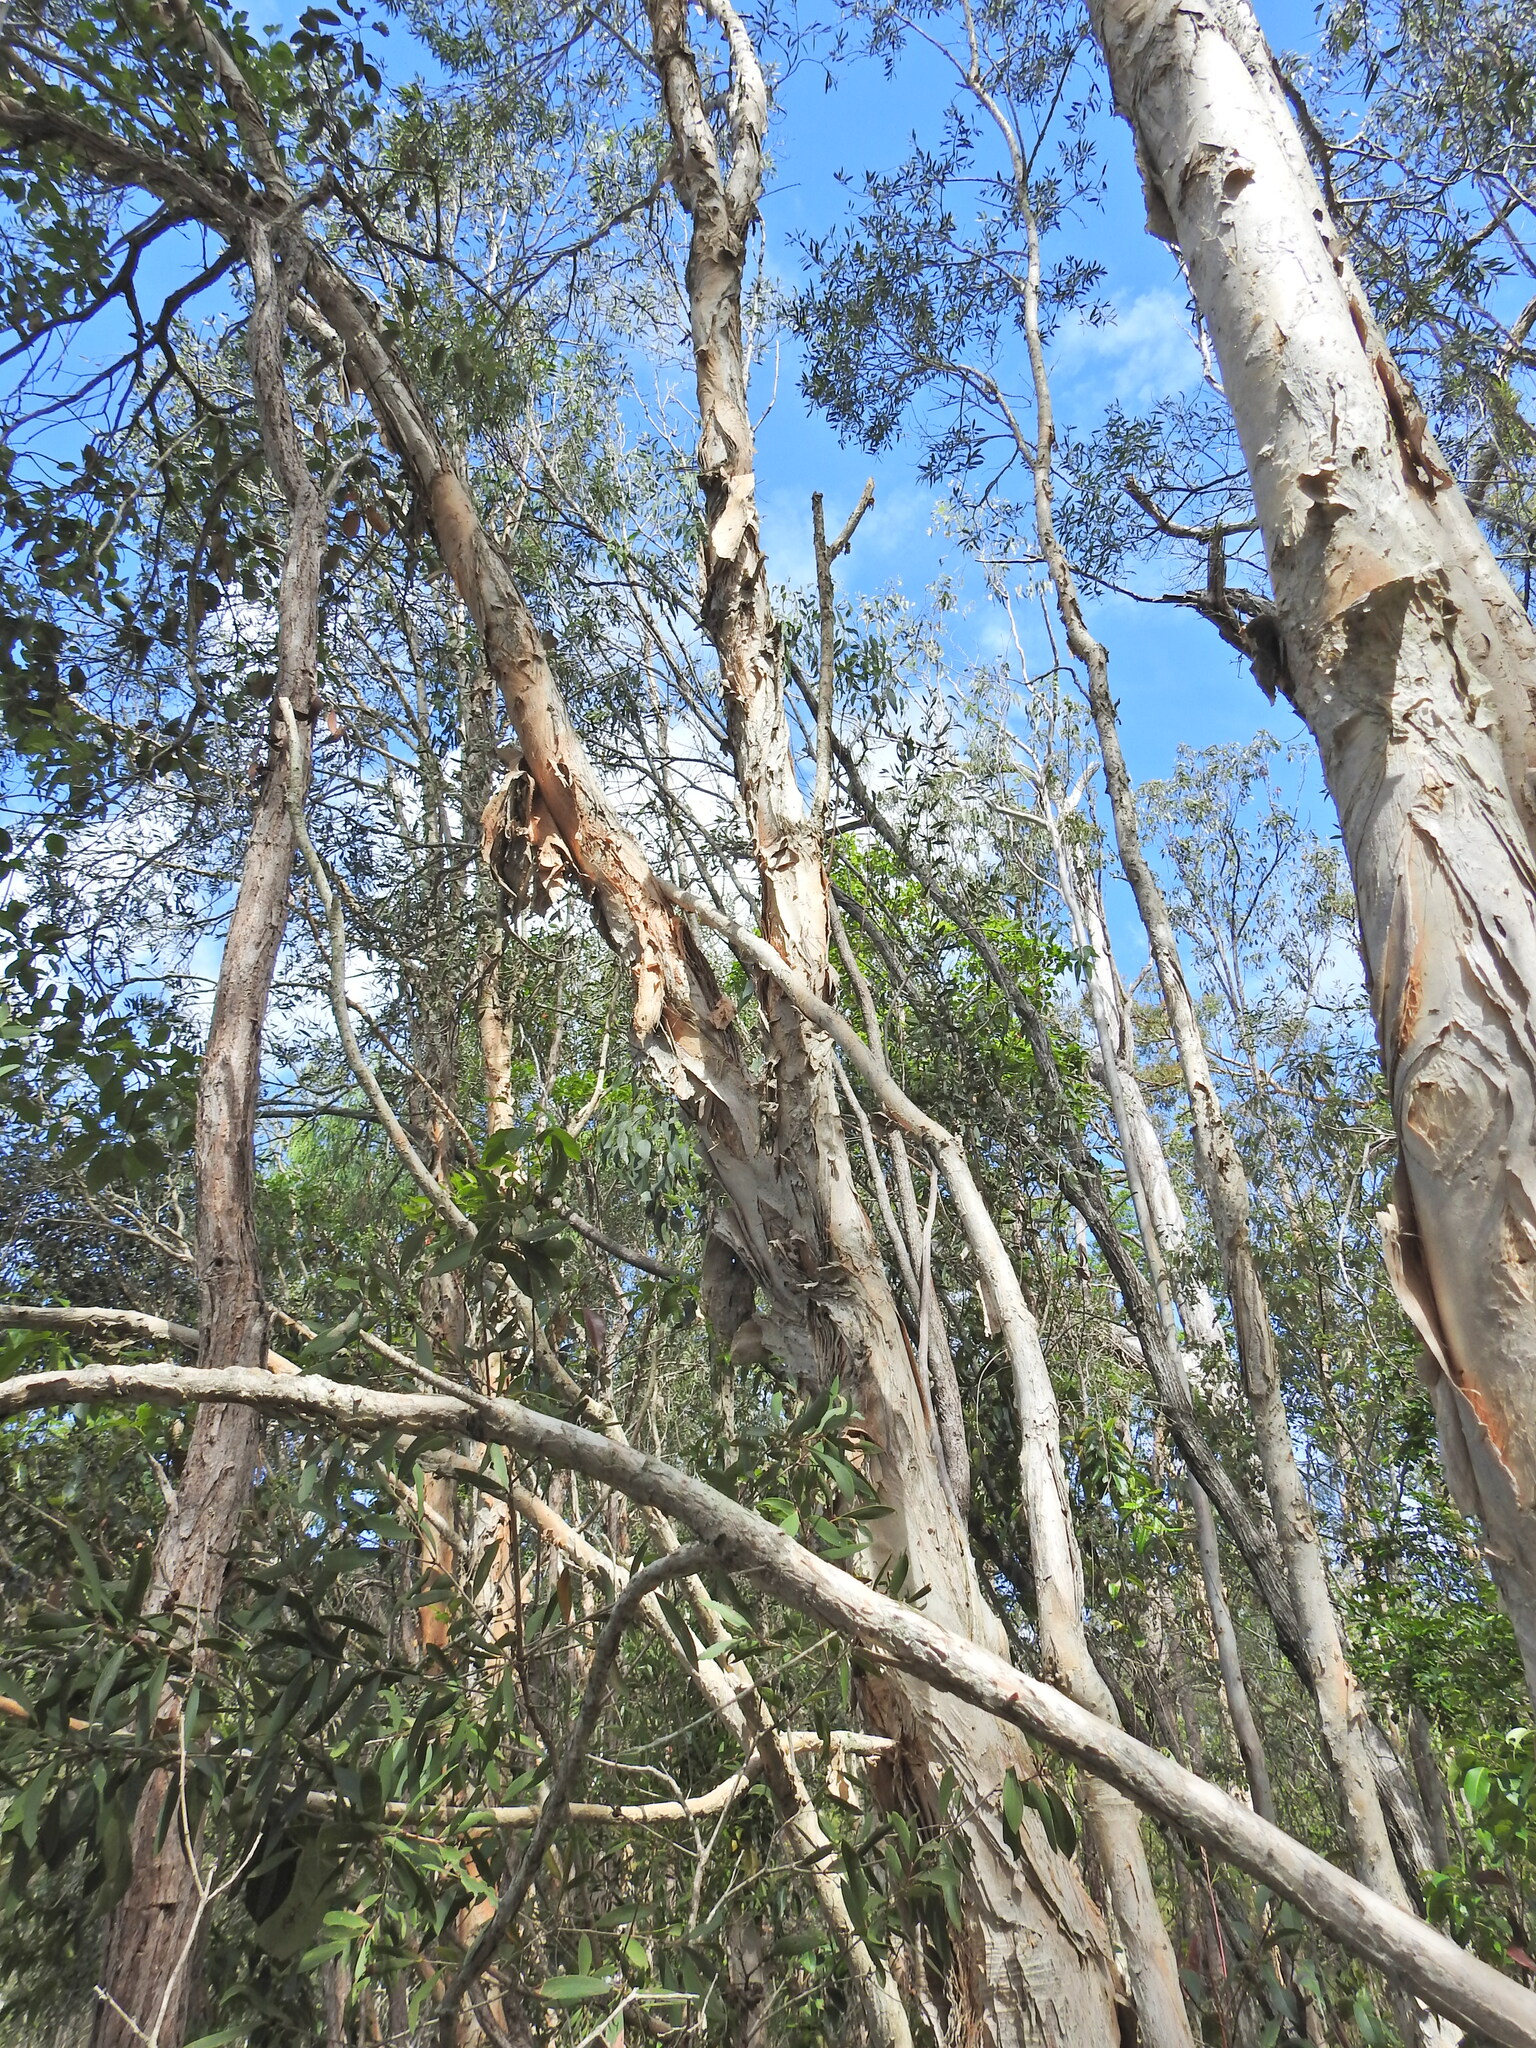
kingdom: Plantae
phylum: Tracheophyta
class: Magnoliopsida
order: Myrtales
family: Myrtaceae
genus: Melaleuca
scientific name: Melaleuca quinquenervia
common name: Punktree
